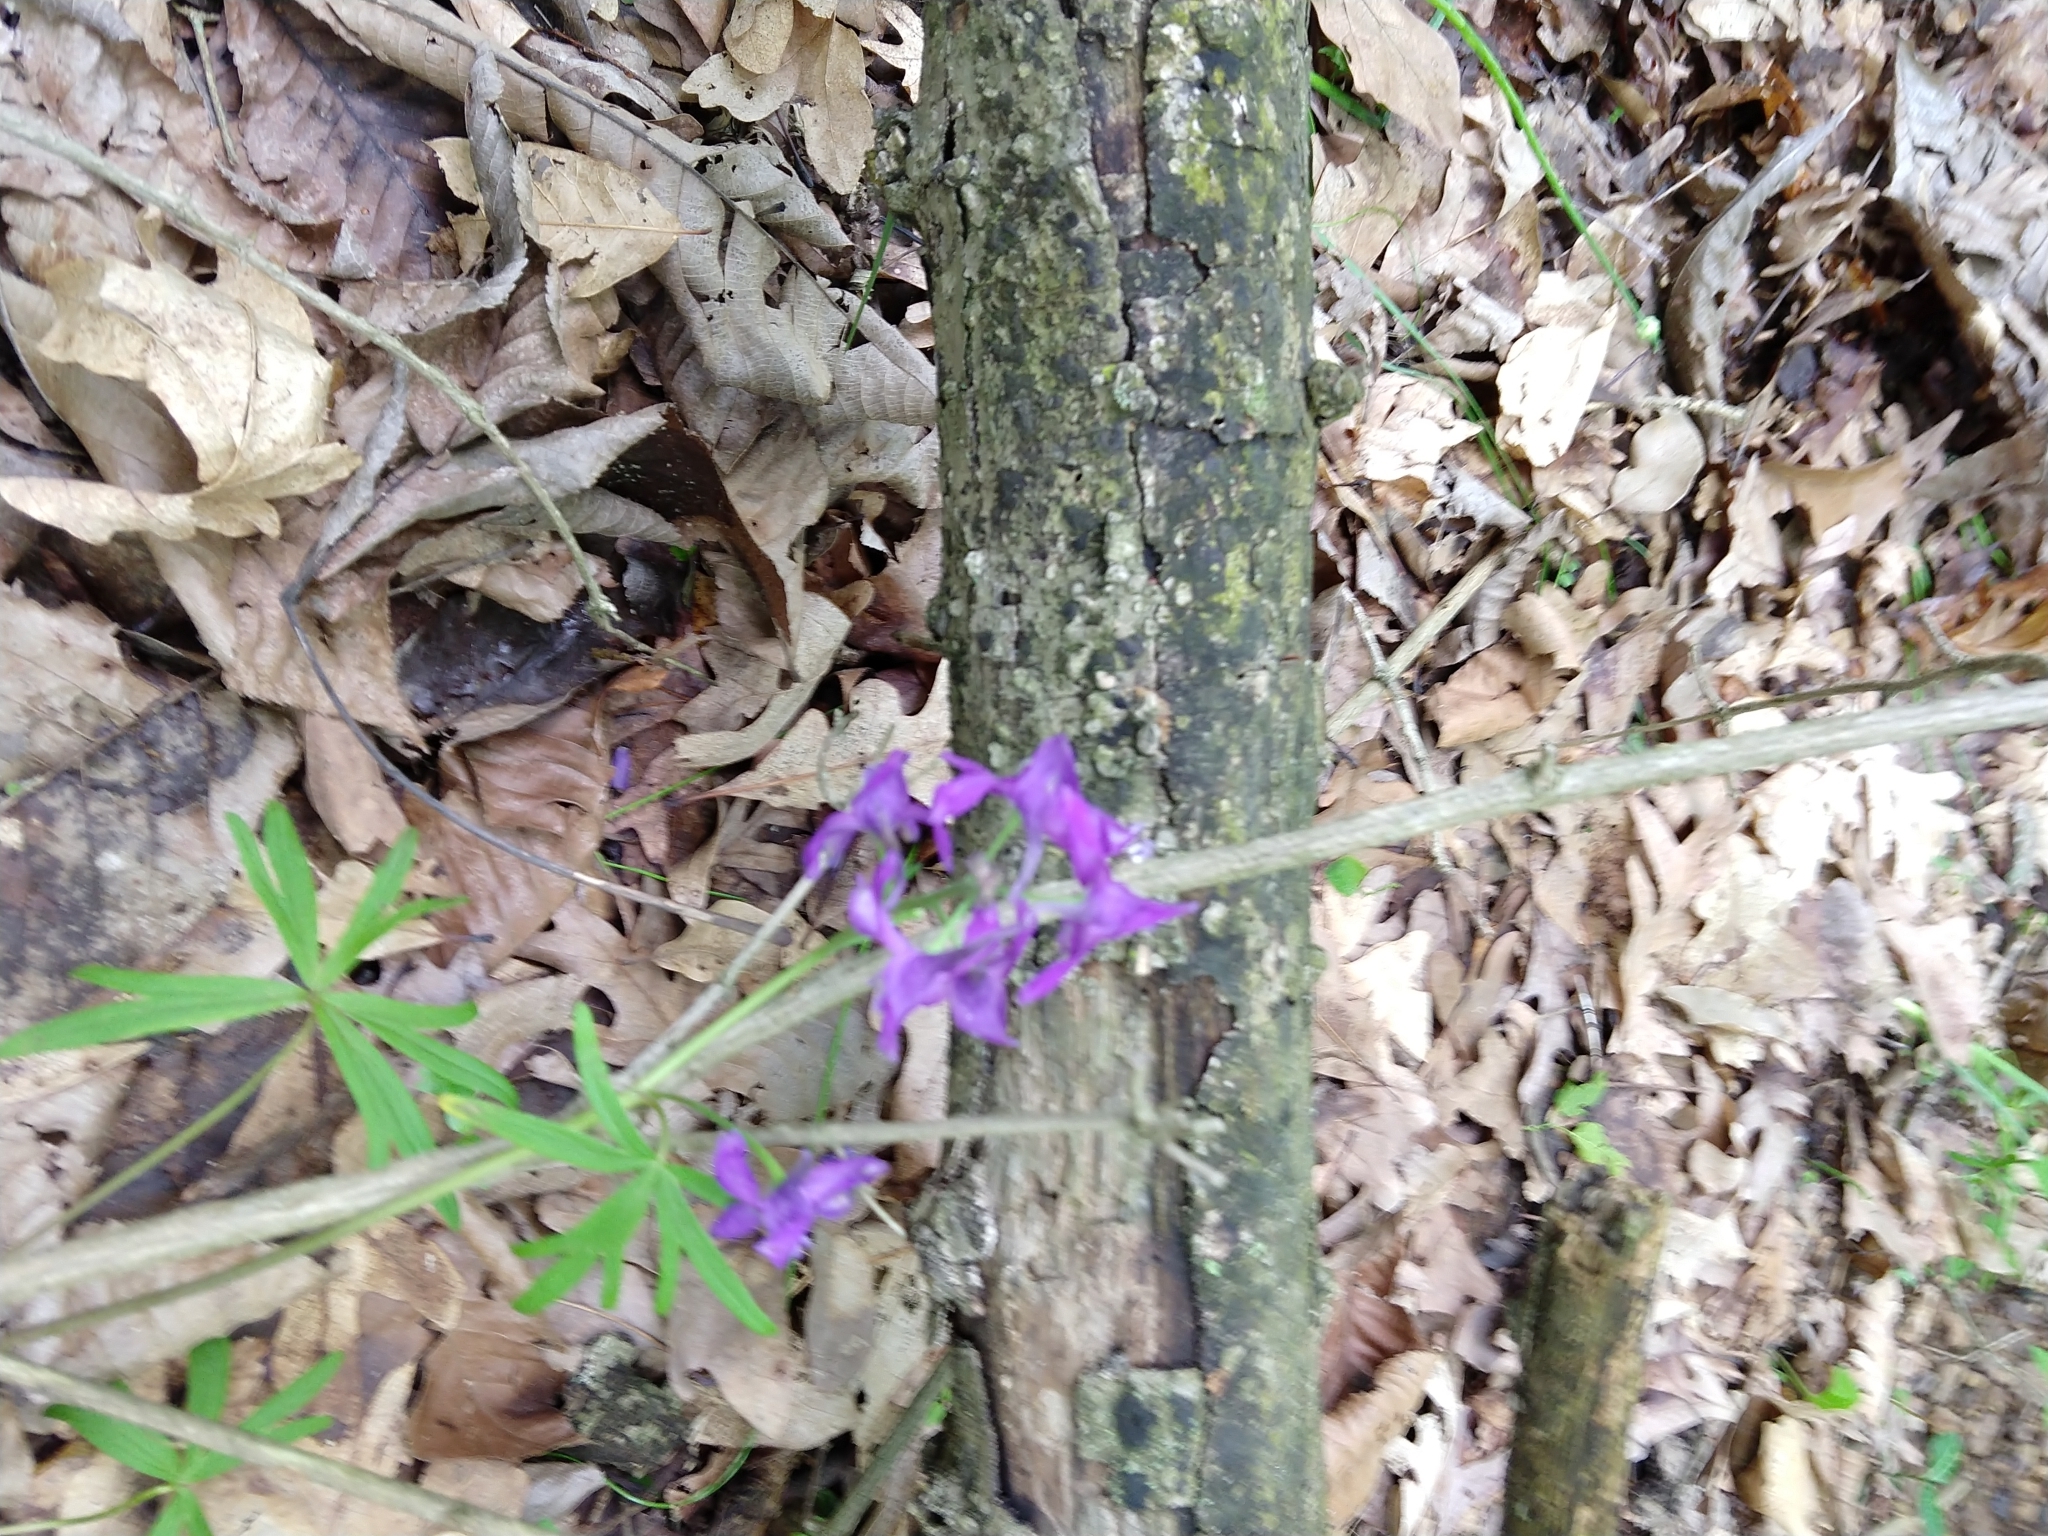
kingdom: Plantae
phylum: Tracheophyta
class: Magnoliopsida
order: Ranunculales
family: Ranunculaceae
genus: Delphinium
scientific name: Delphinium tricorne
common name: Dwarf larkspur
